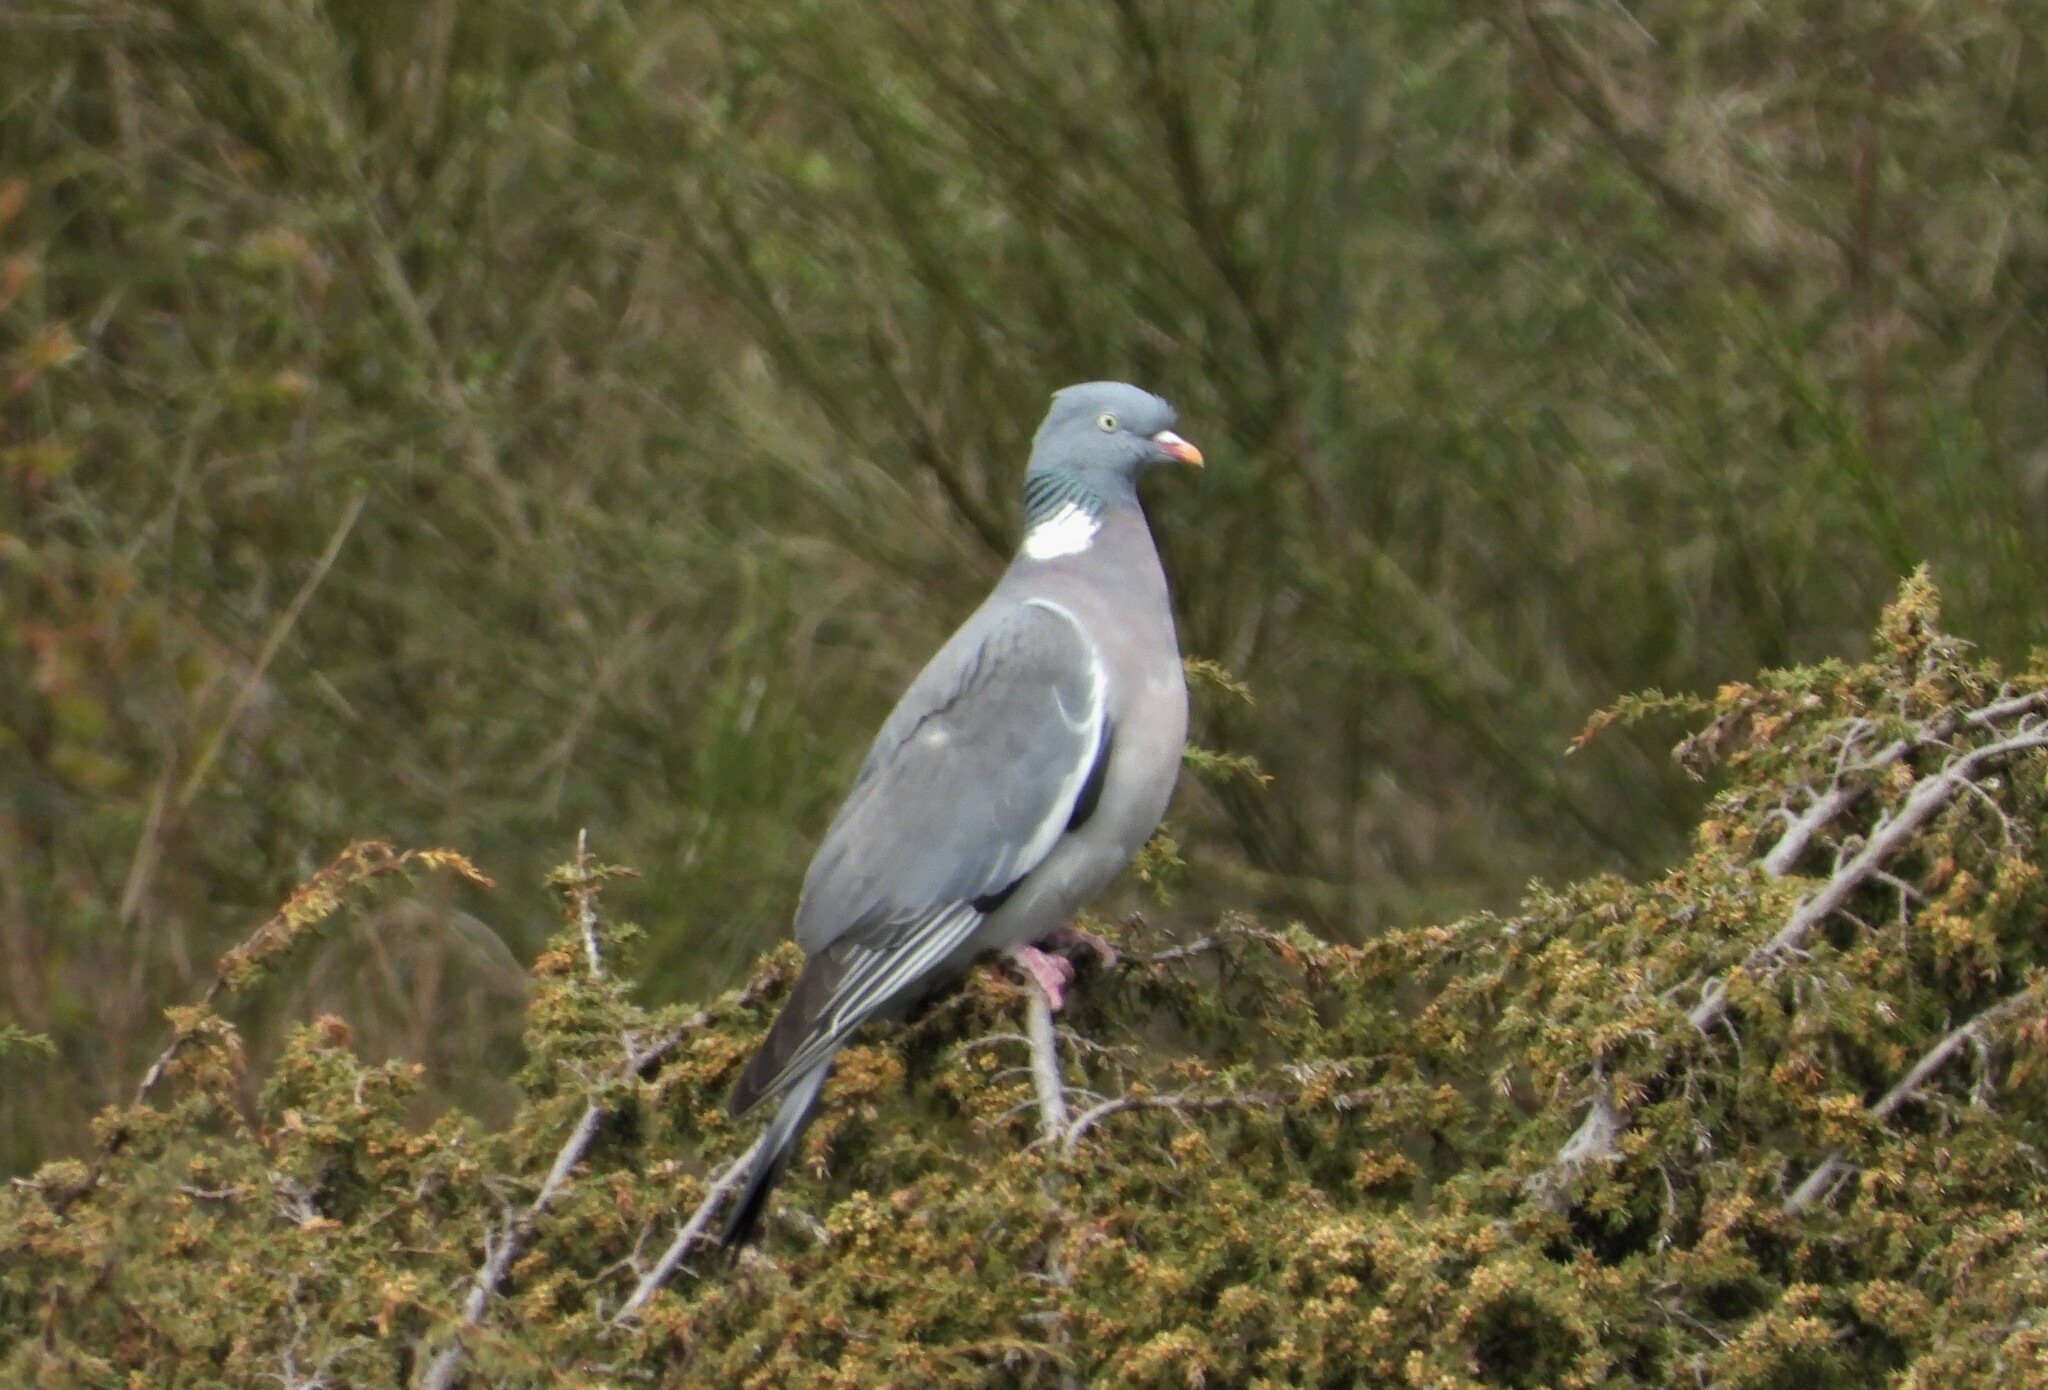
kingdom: Animalia
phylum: Chordata
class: Aves
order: Columbiformes
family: Columbidae
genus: Columba
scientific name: Columba palumbus
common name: Common wood pigeon
